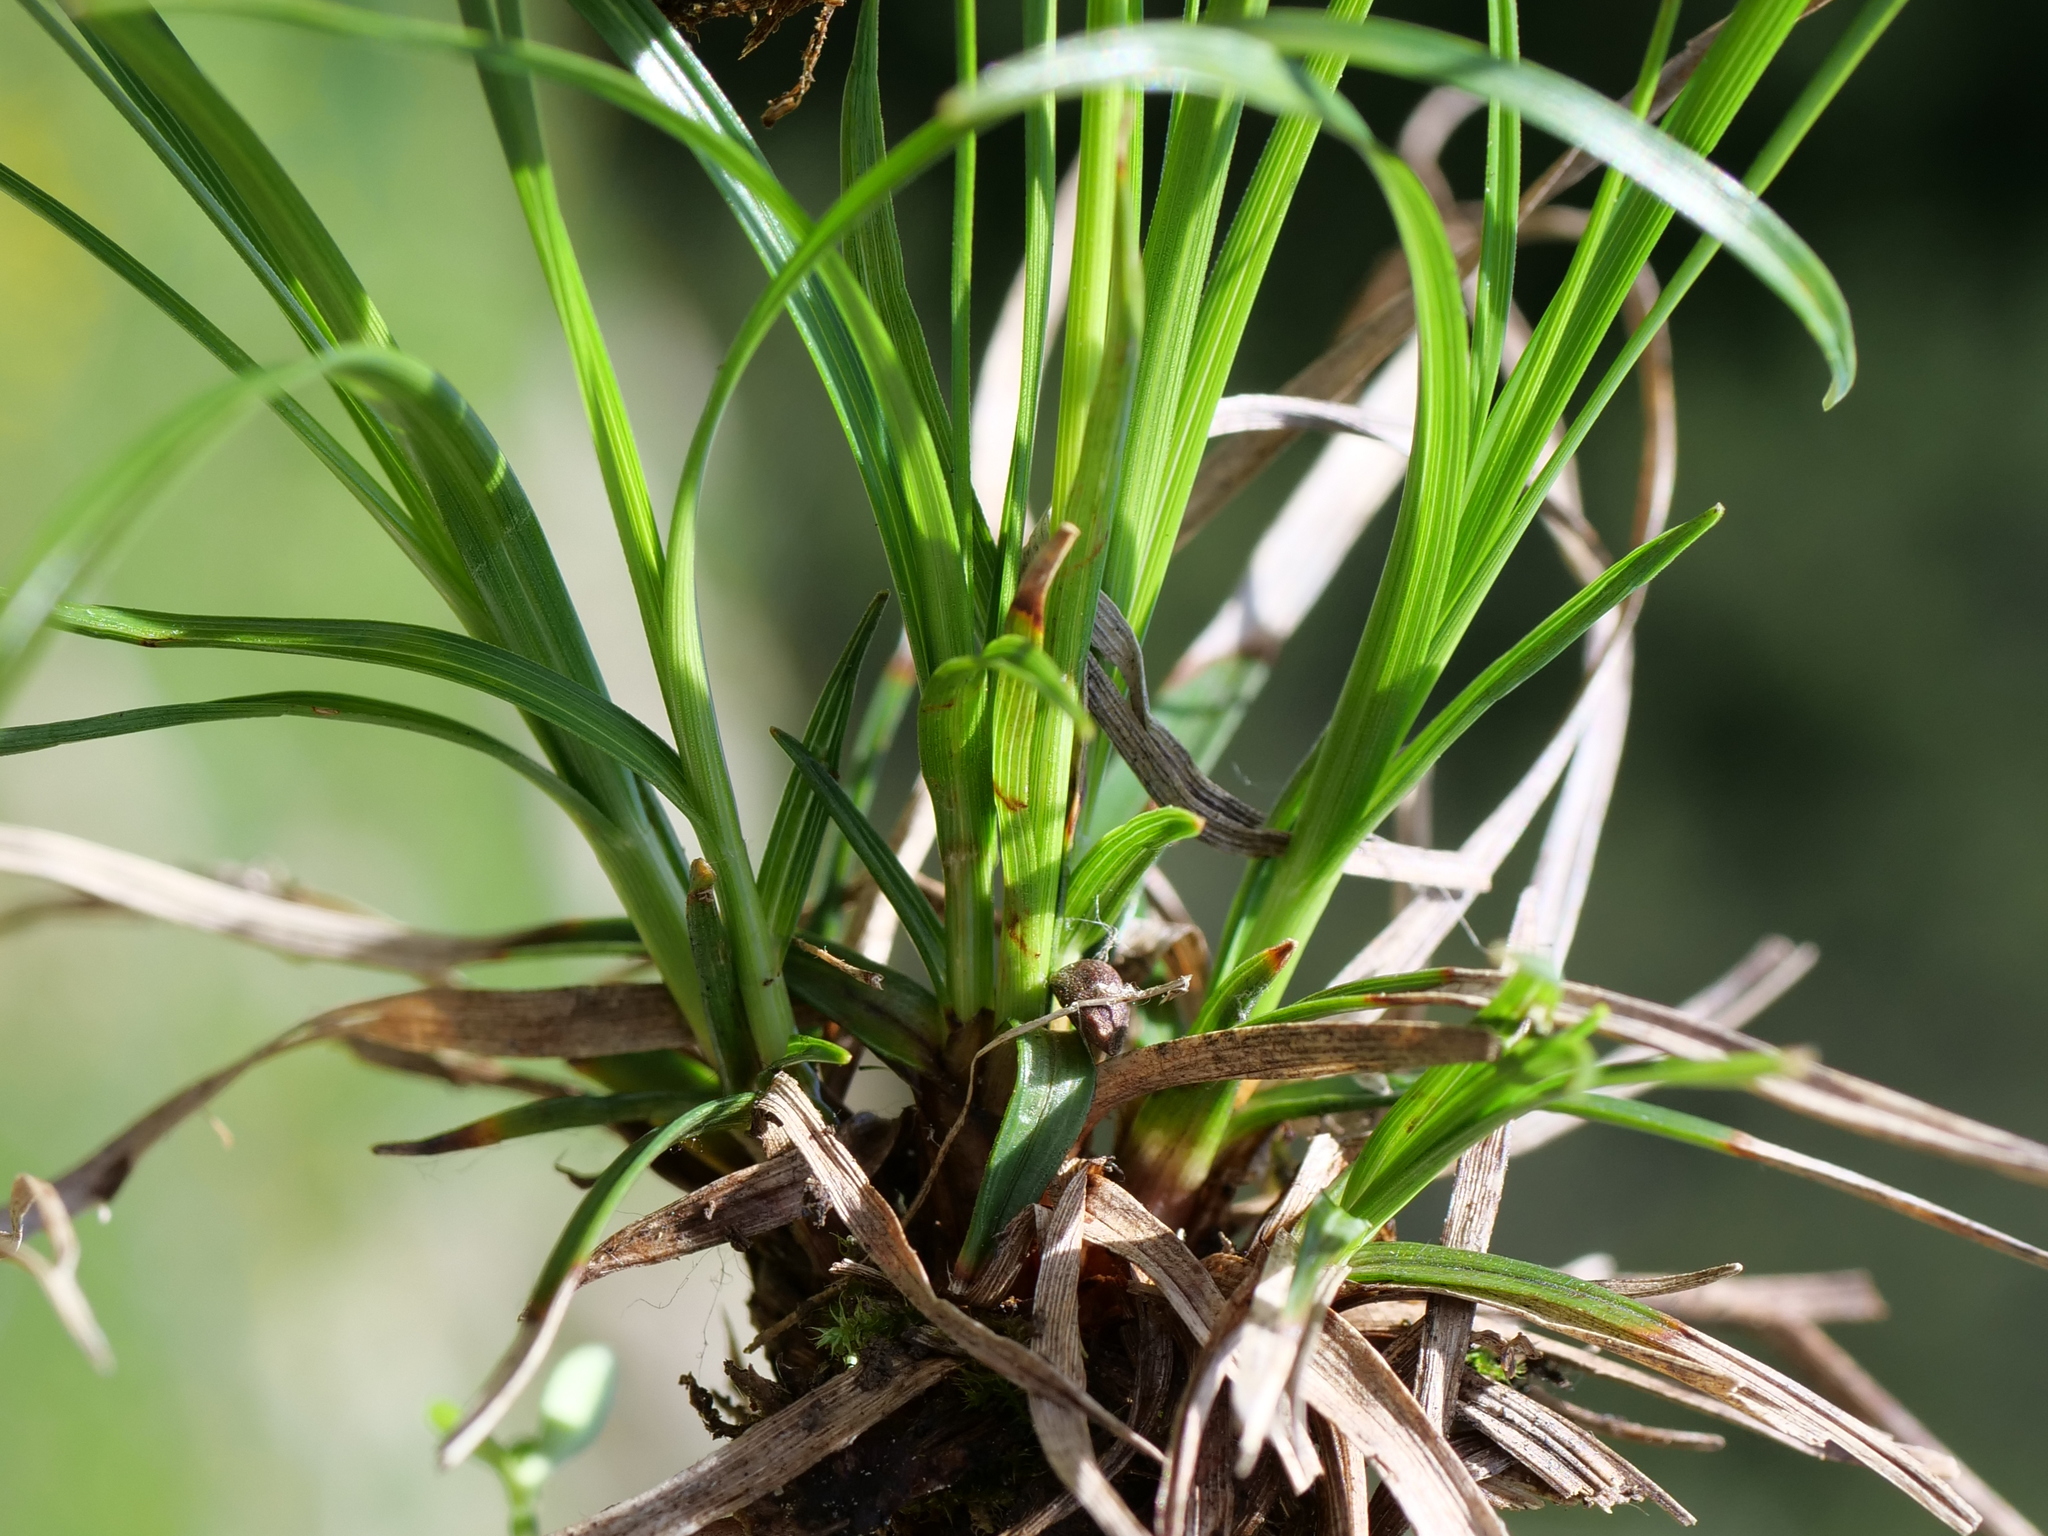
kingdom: Plantae
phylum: Tracheophyta
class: Liliopsida
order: Poales
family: Cyperaceae
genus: Carex
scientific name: Carex sempervirens
